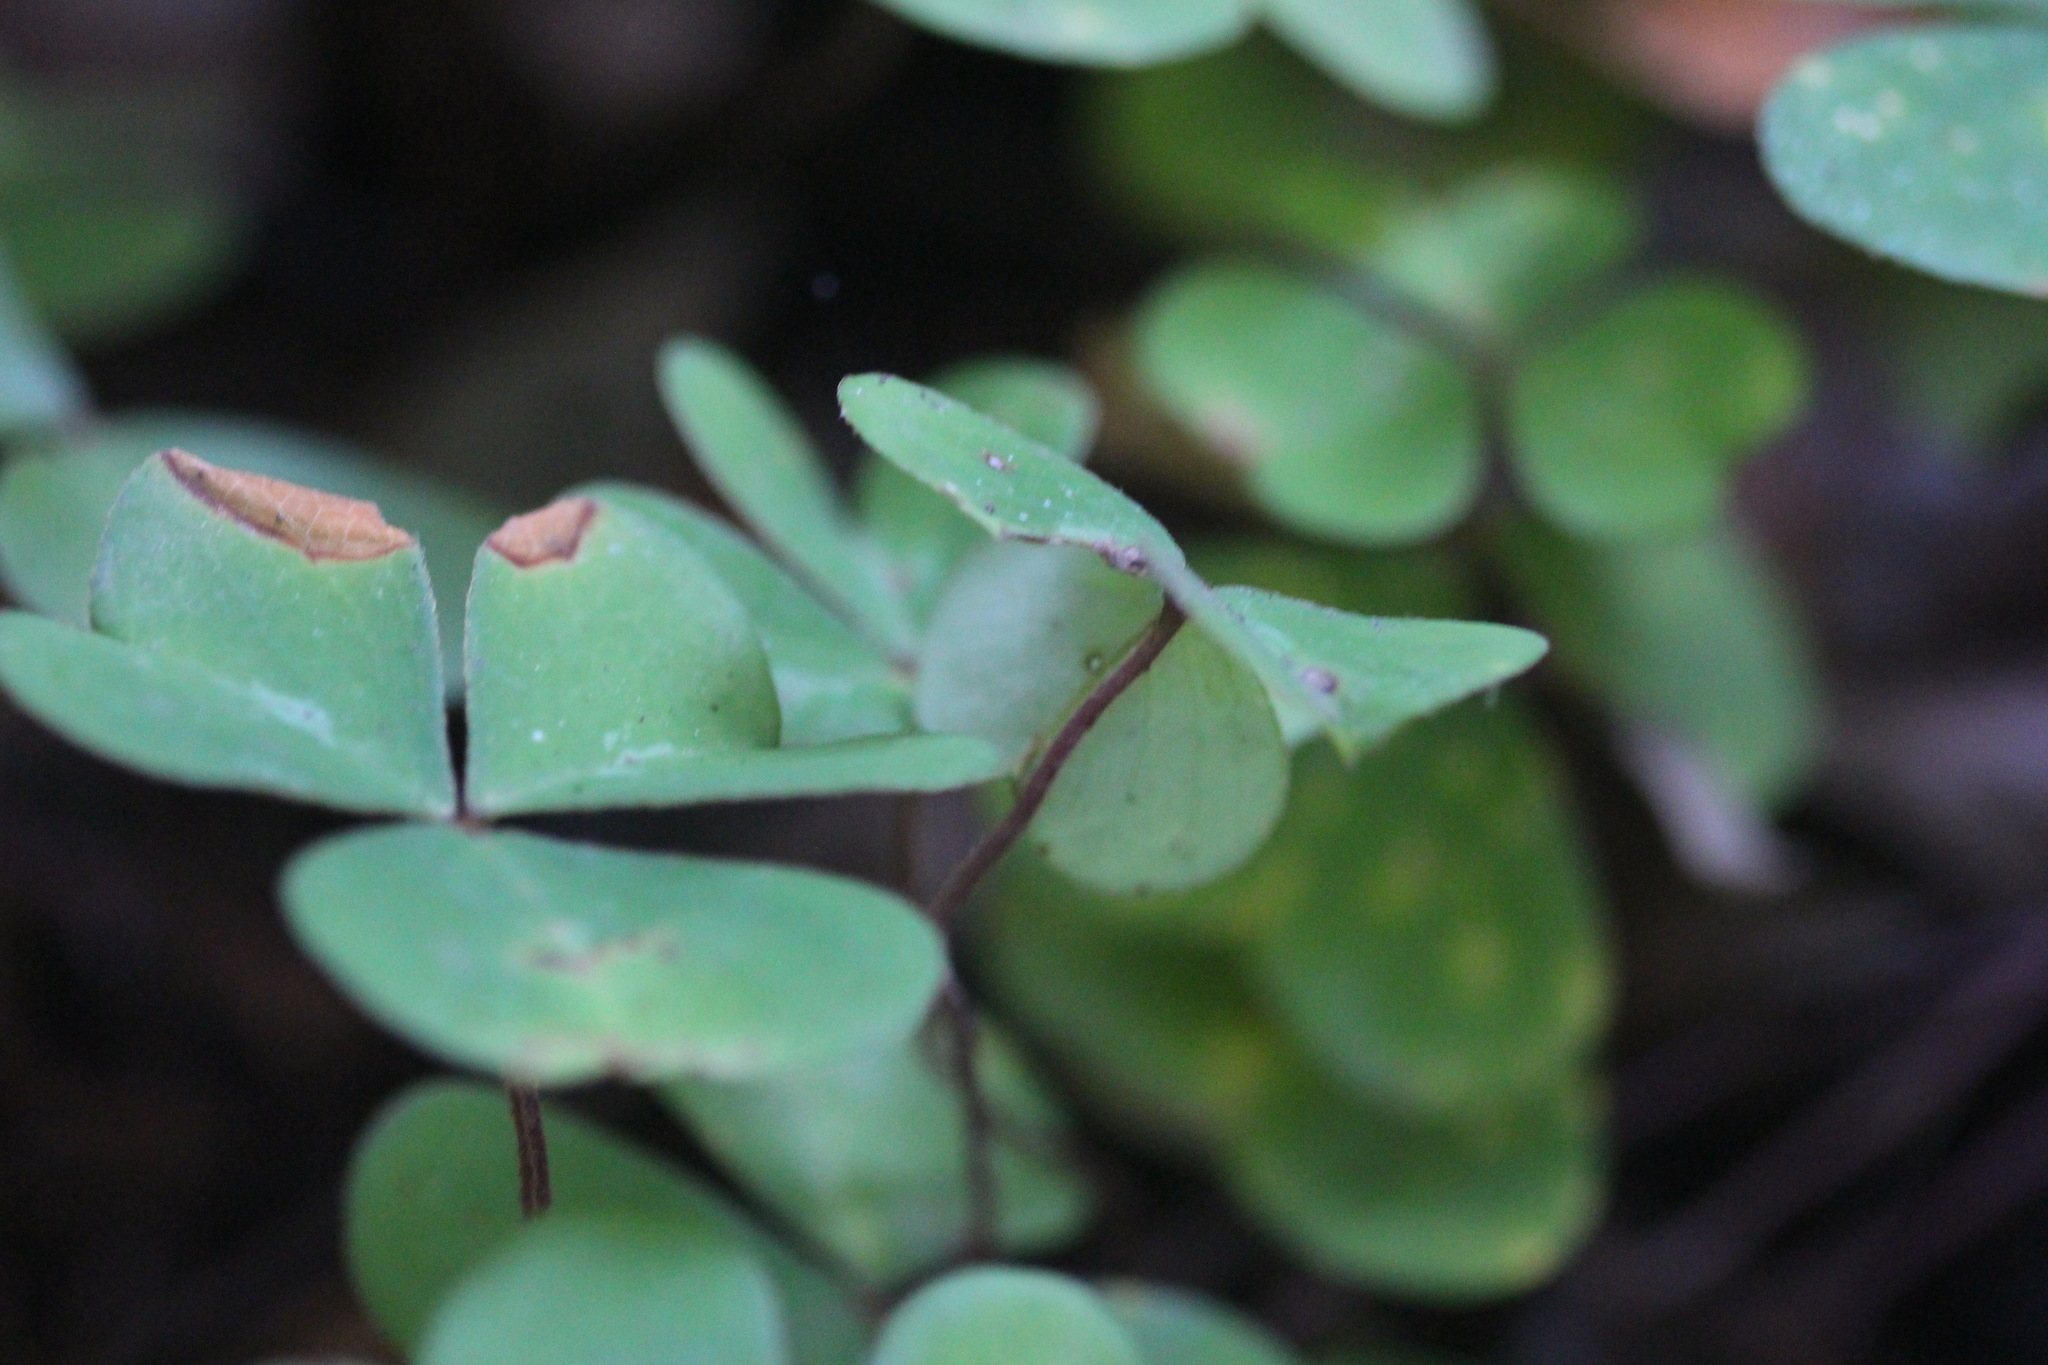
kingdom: Plantae
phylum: Tracheophyta
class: Magnoliopsida
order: Oxalidales
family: Oxalidaceae
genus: Oxalis
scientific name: Oxalis oregana
